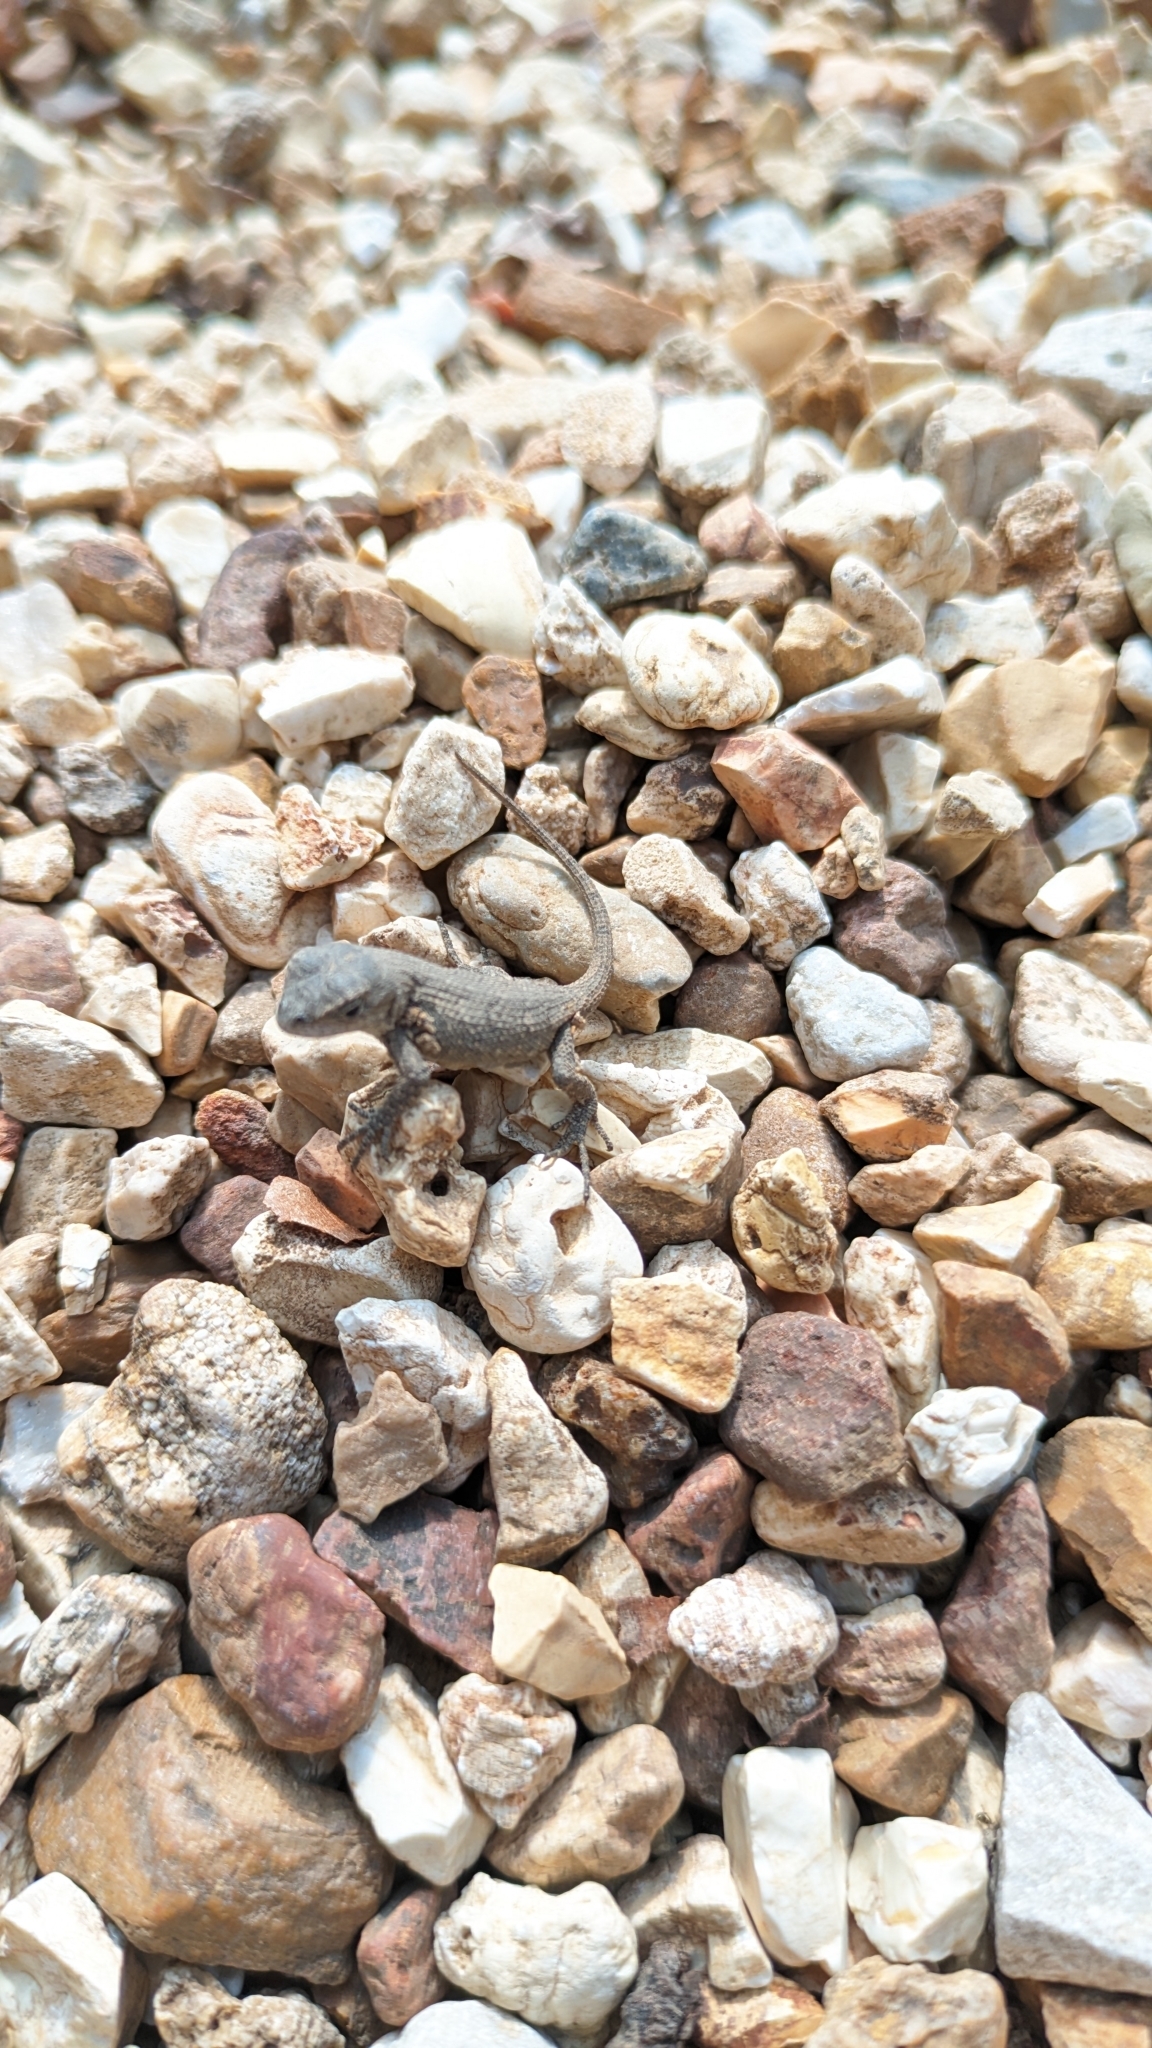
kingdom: Animalia
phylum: Chordata
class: Squamata
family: Phrynosomatidae
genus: Sceloporus
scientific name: Sceloporus consobrinus
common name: Southern prairie lizard
